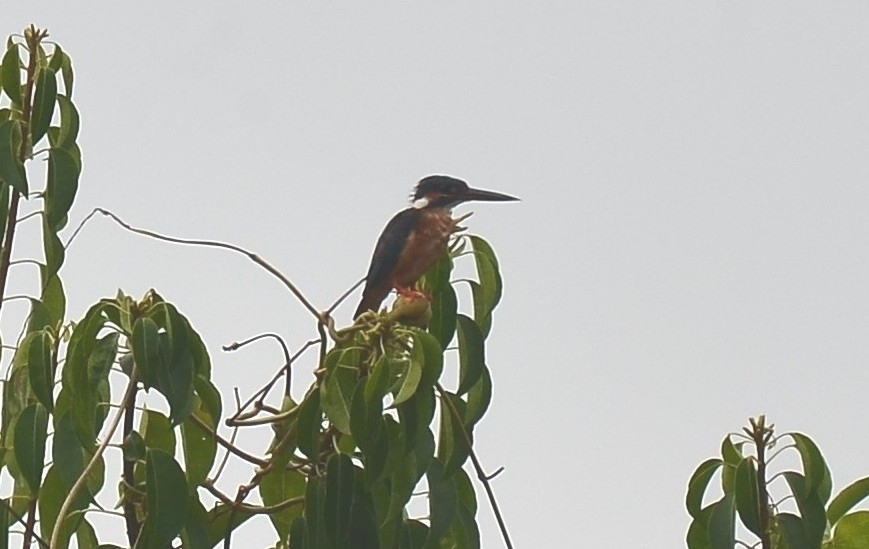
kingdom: Animalia
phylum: Chordata
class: Aves
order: Coraciiformes
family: Alcedinidae
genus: Alcedo
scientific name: Alcedo atthis
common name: Common kingfisher
